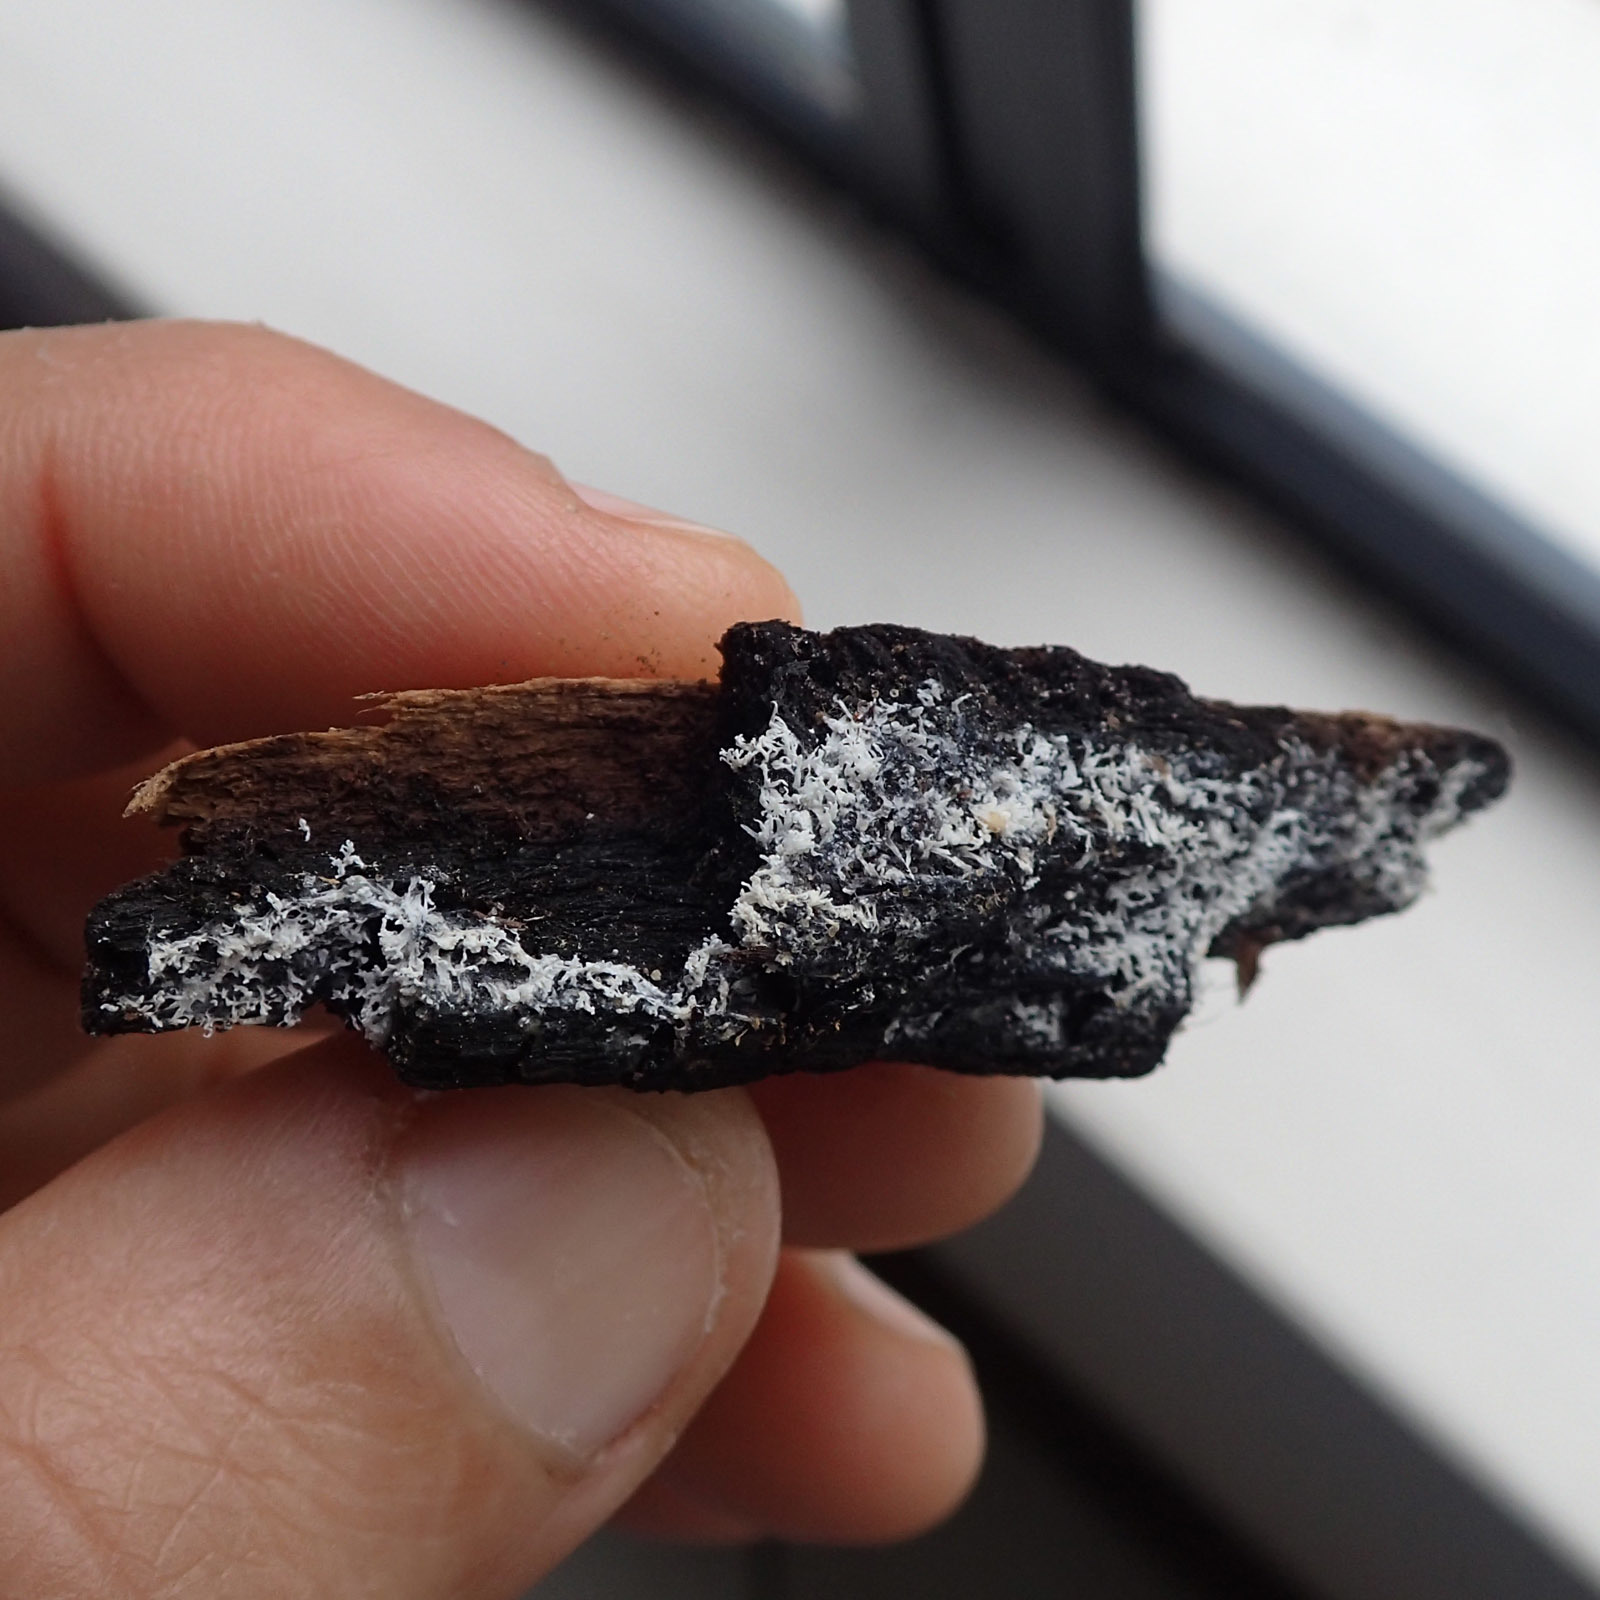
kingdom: Protozoa
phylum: Mycetozoa
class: Protosteliomycetes
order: Ceratiomyxales
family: Ceratiomyxaceae
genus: Ceratiomyxa
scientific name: Ceratiomyxa fruticulosa
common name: Honeycomb coral slime mold
